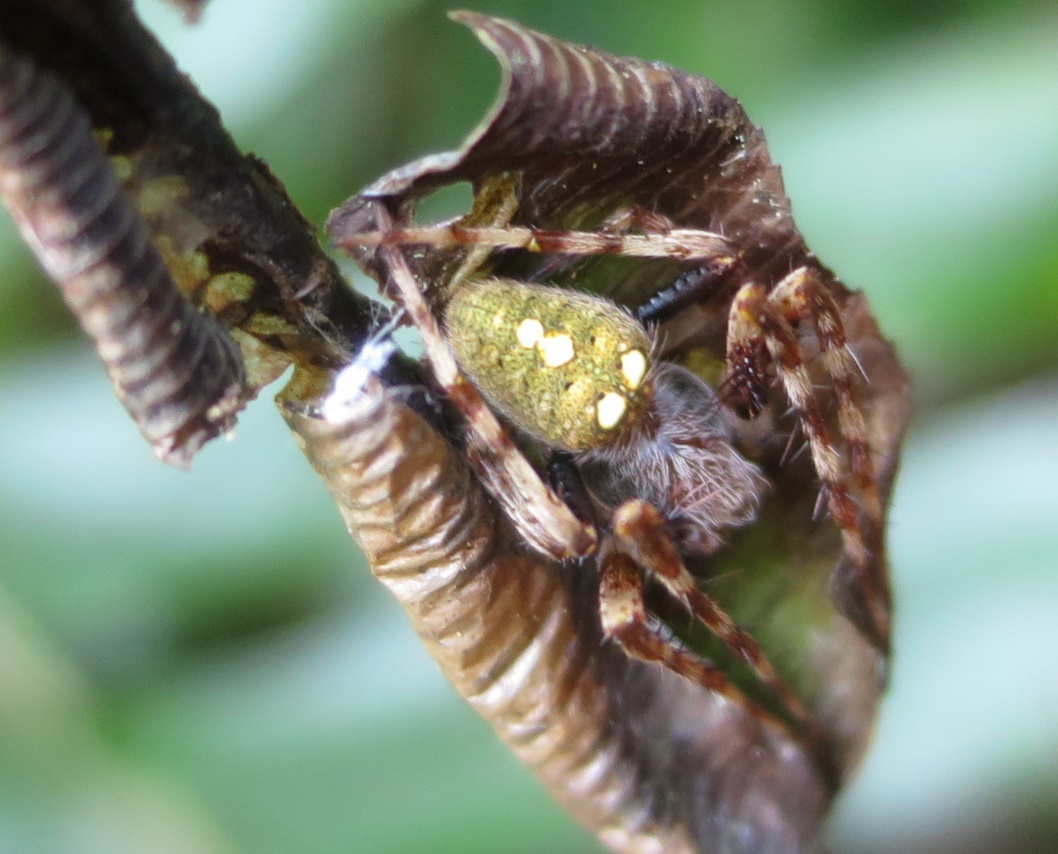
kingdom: Animalia
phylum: Arthropoda
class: Arachnida
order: Araneae
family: Araneidae
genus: Zealaranea
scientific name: Zealaranea trinotata
